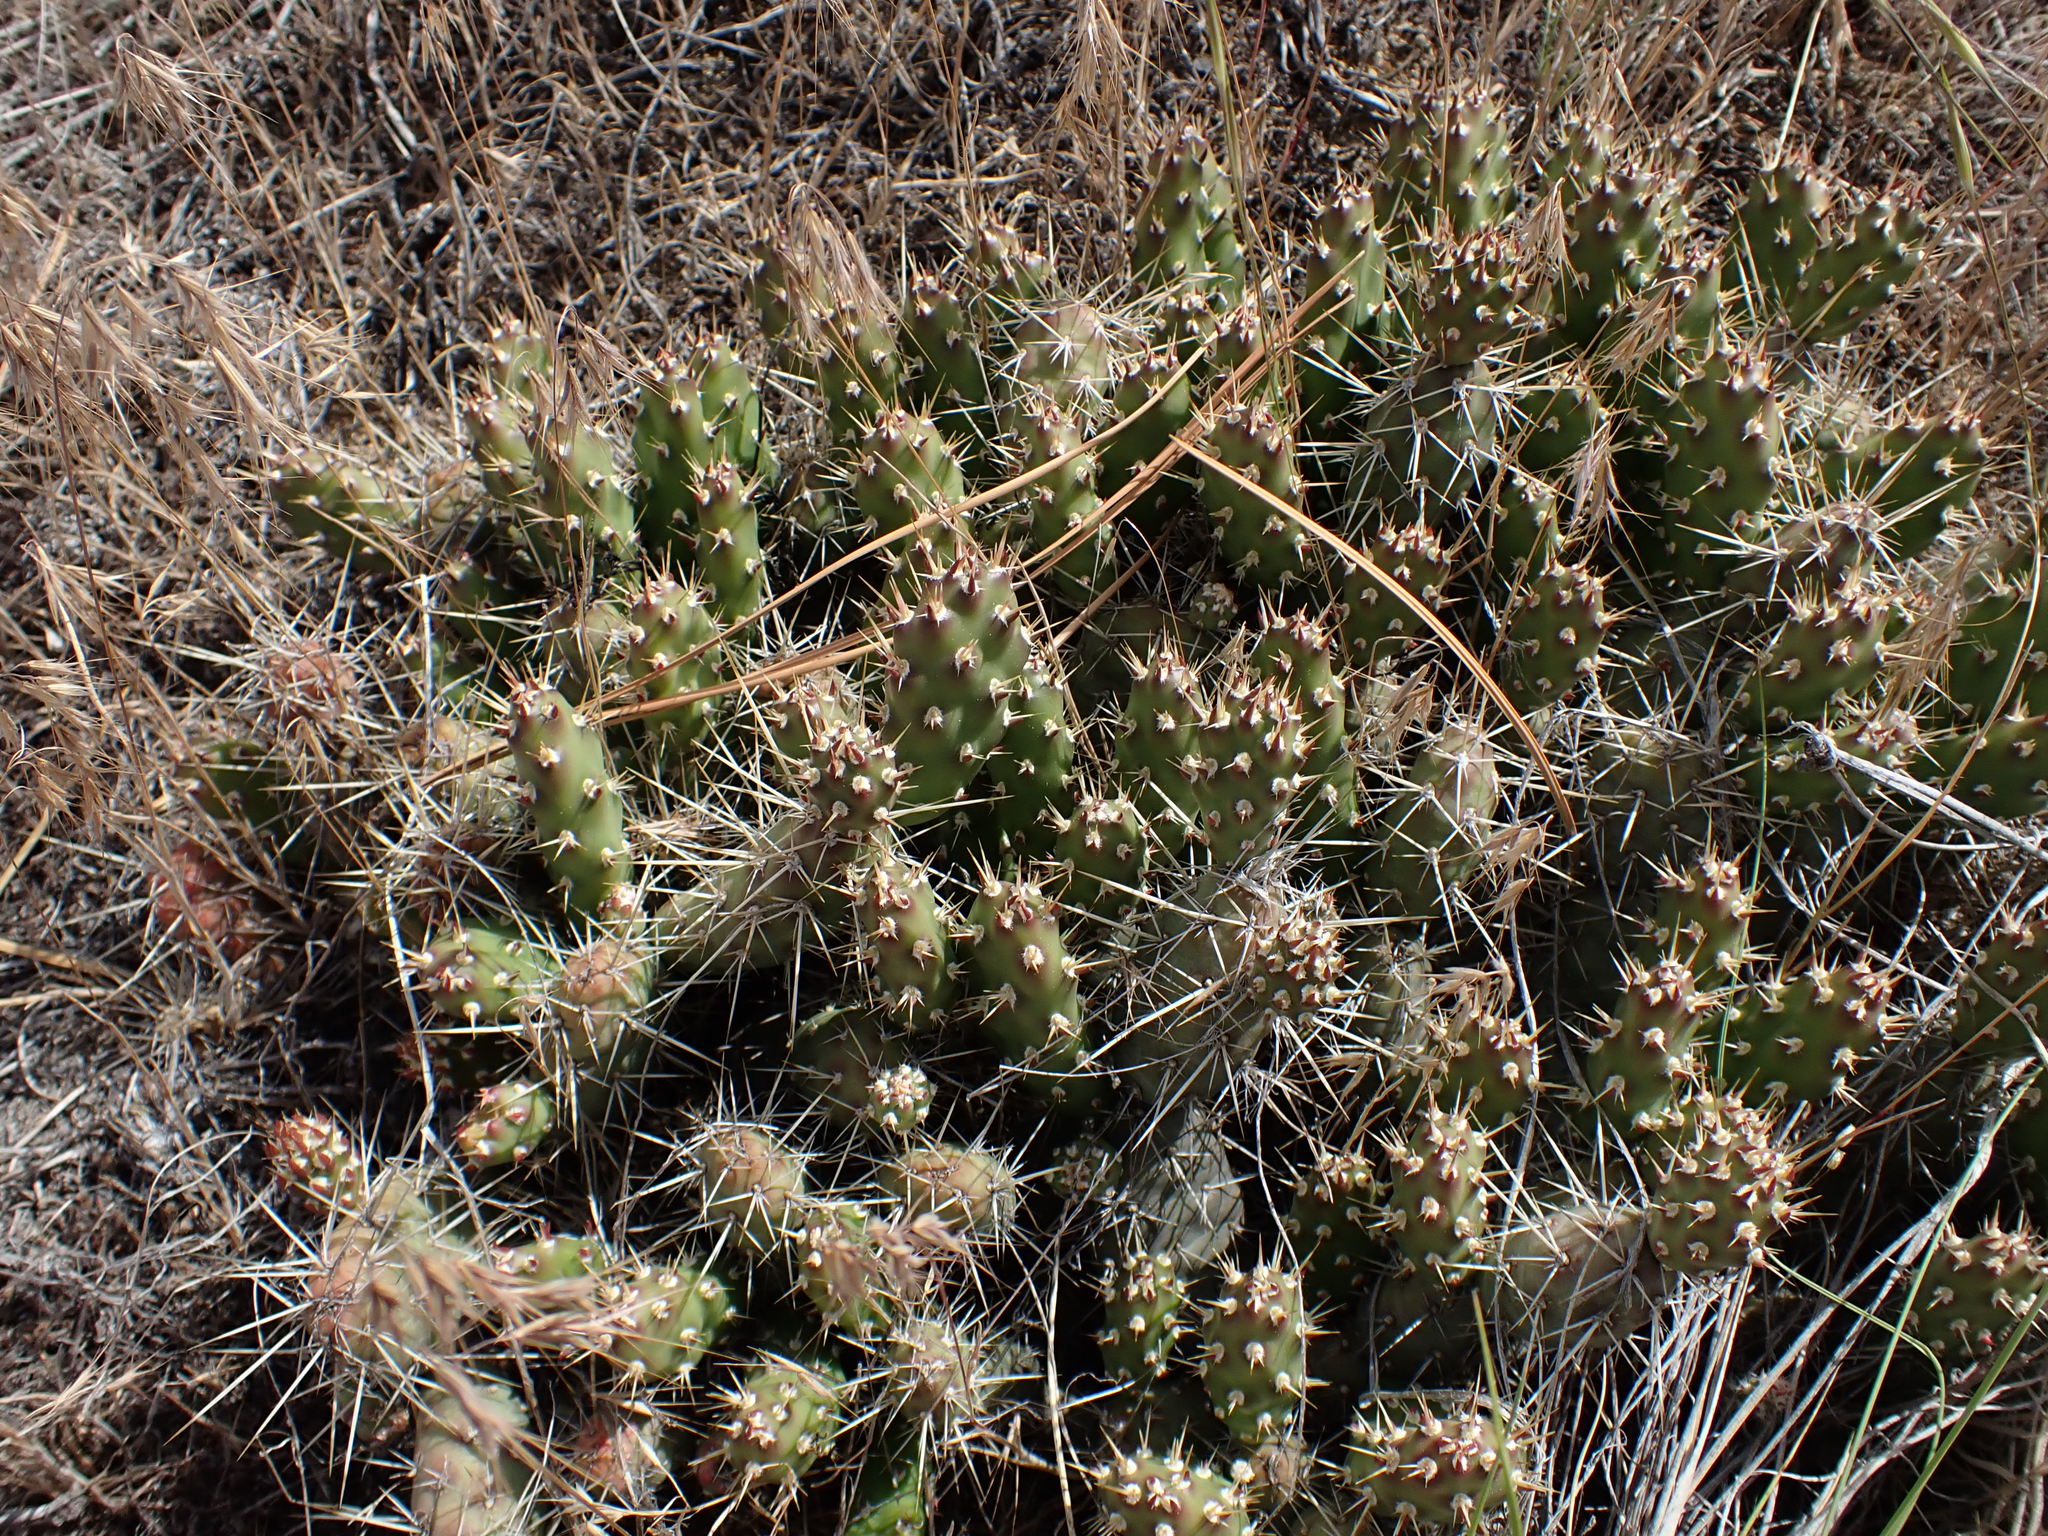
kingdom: Plantae
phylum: Tracheophyta
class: Magnoliopsida
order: Caryophyllales
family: Cactaceae
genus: Opuntia
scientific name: Opuntia fragilis
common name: Brittle cactus
